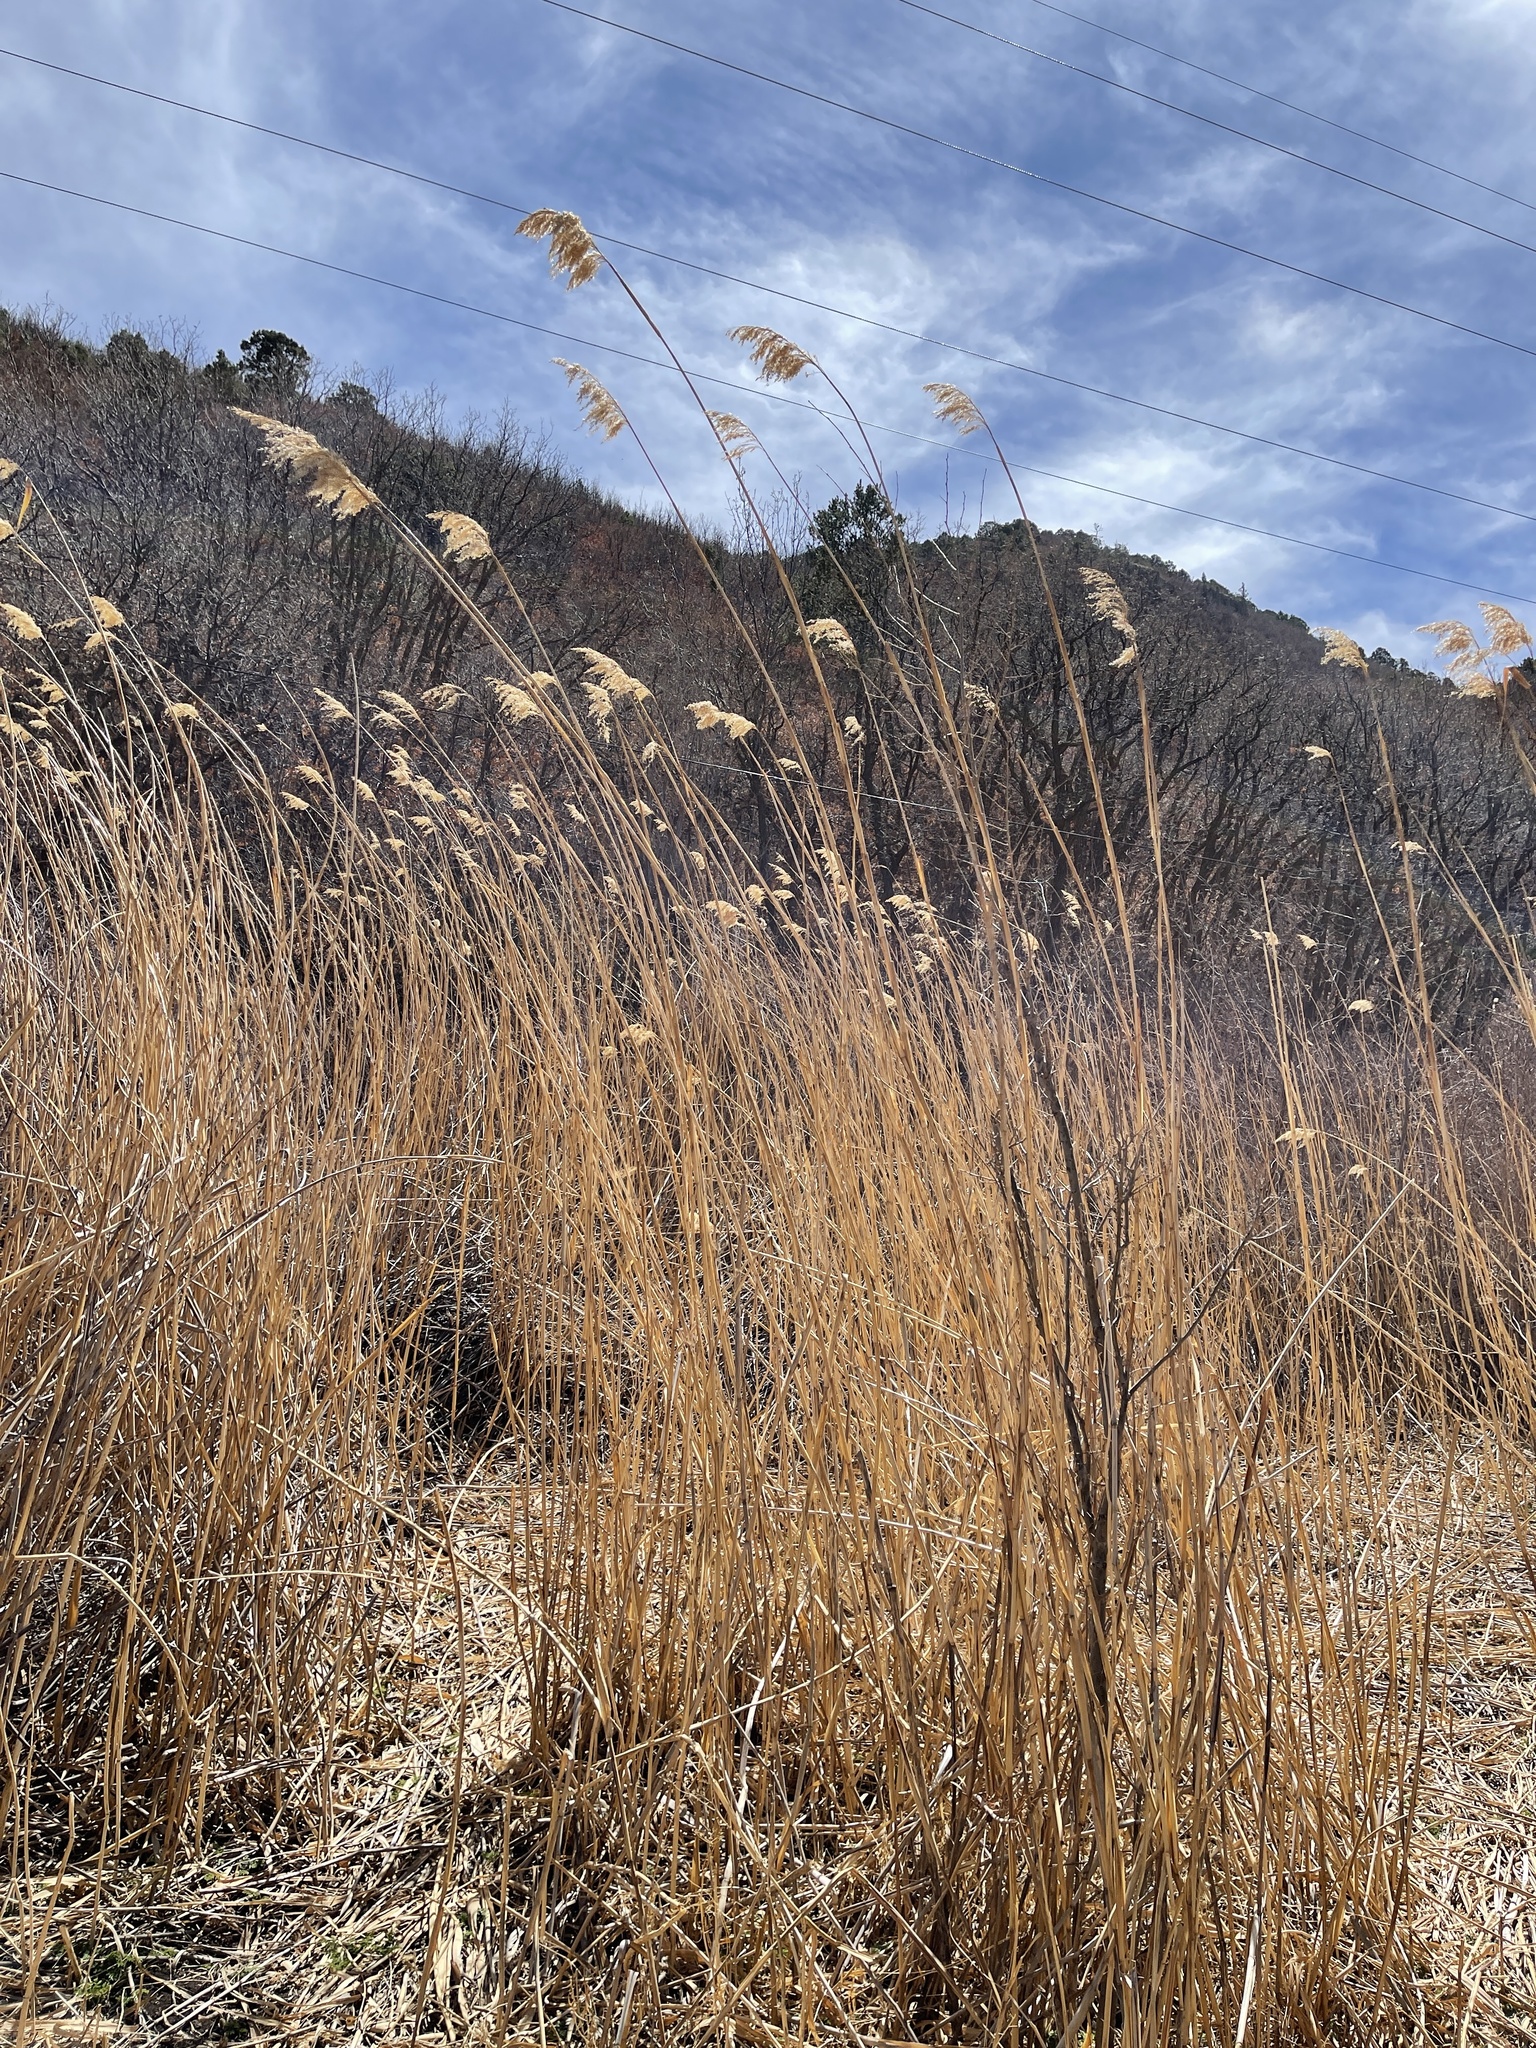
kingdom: Plantae
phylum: Tracheophyta
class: Liliopsida
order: Poales
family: Poaceae
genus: Phragmites
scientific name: Phragmites australis
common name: Common reed
